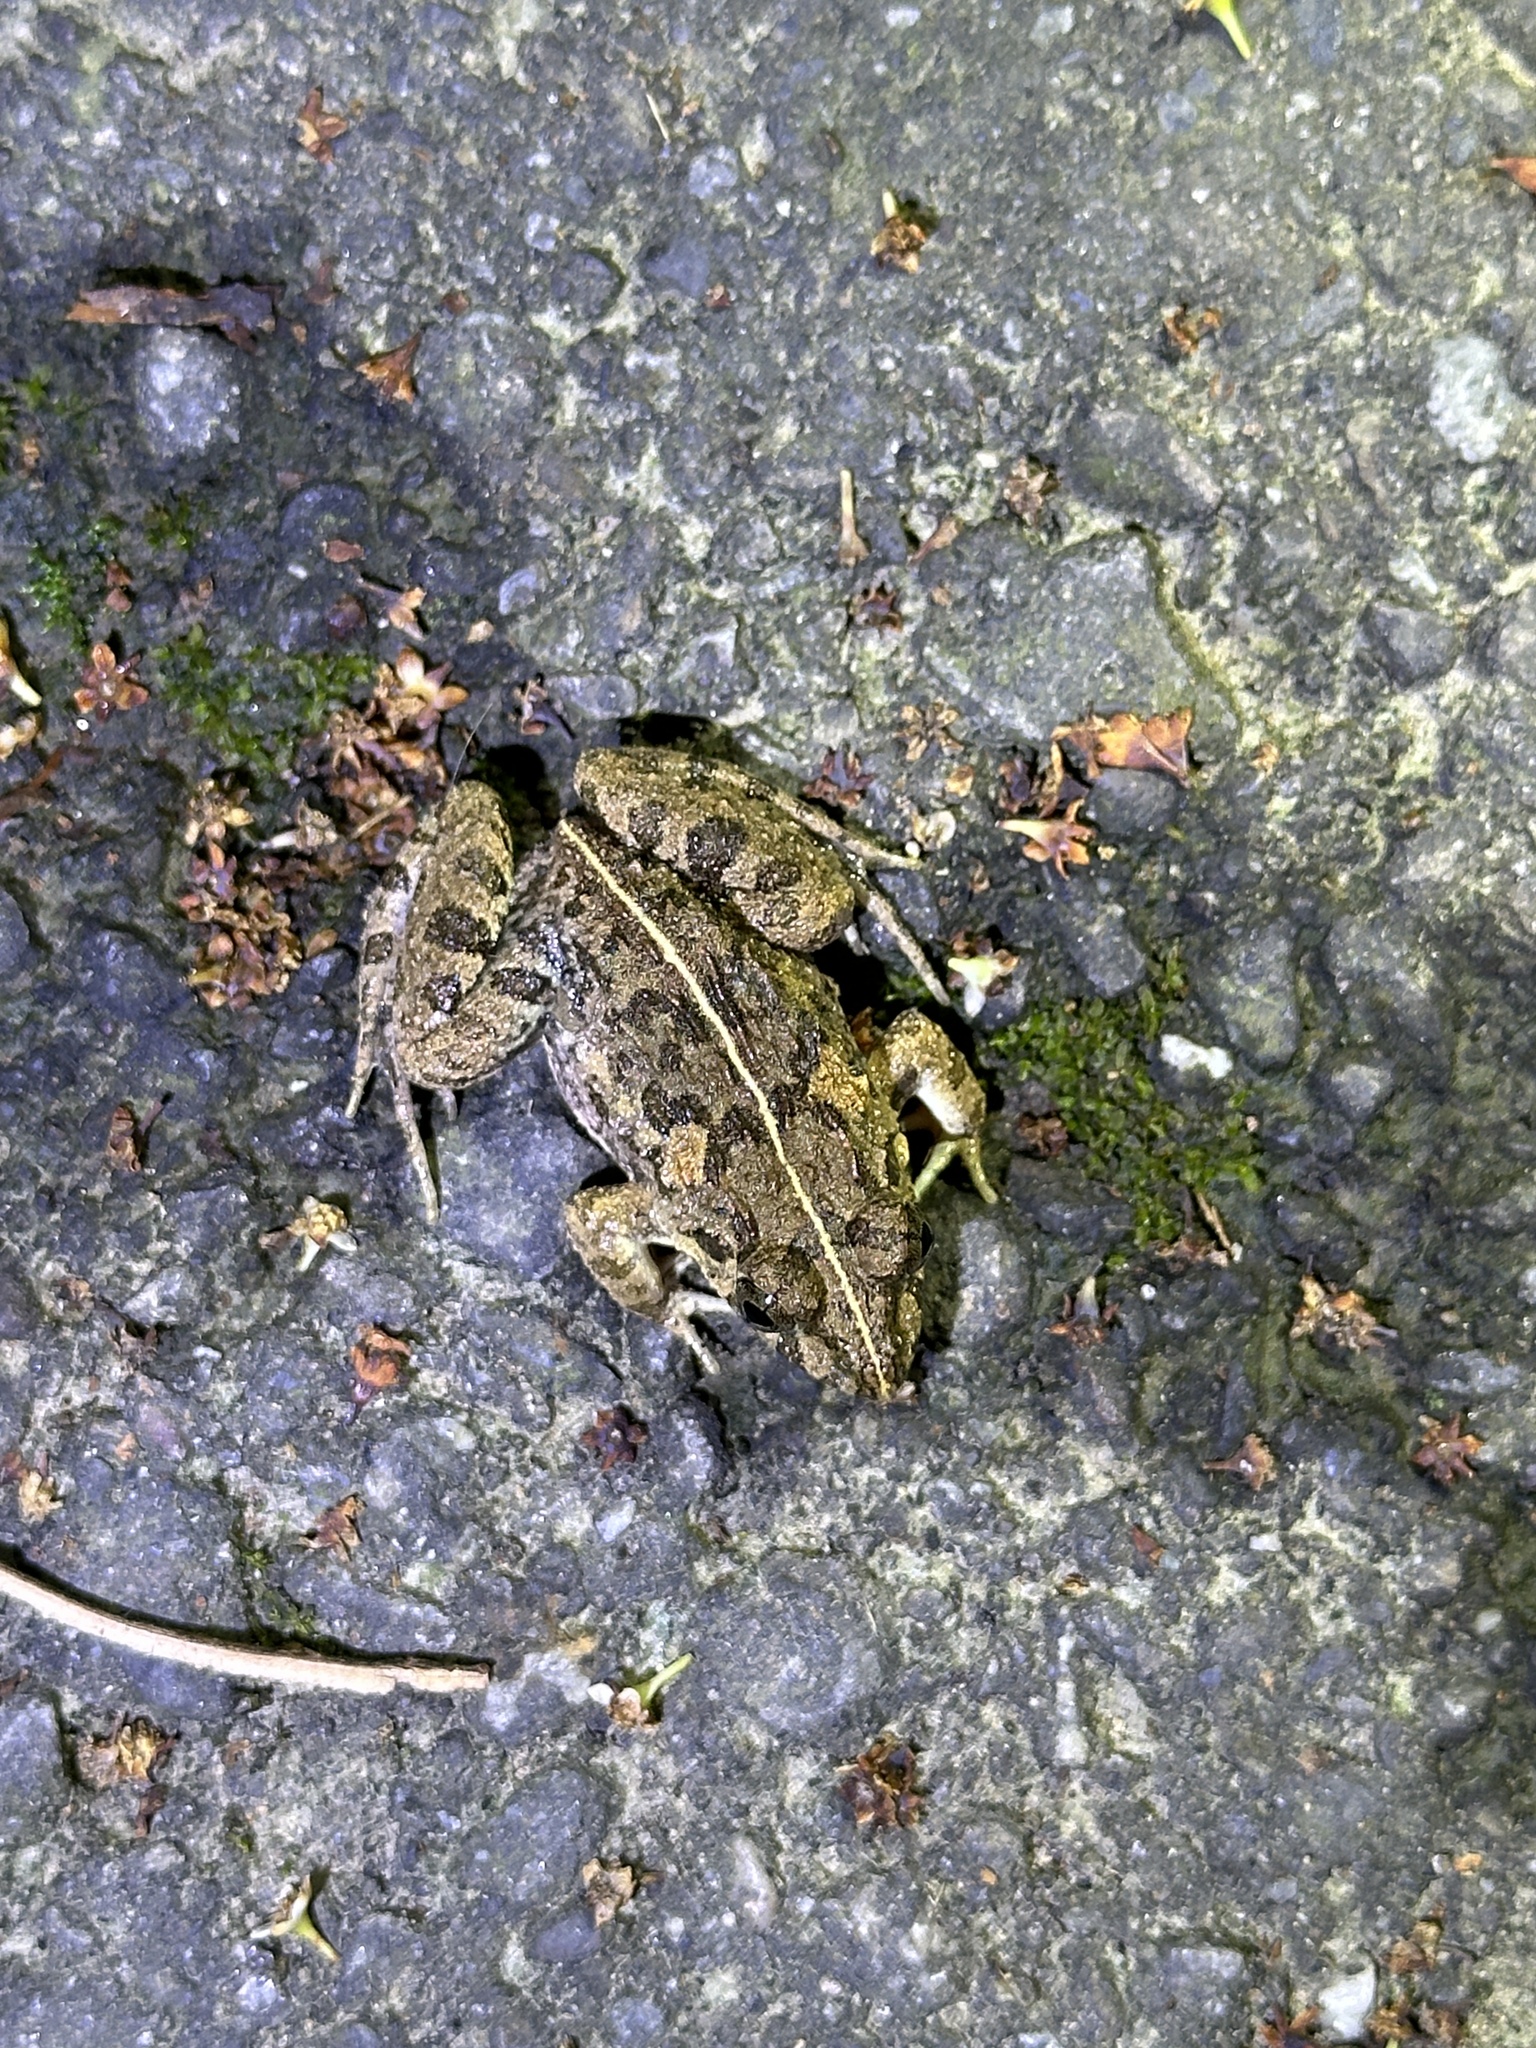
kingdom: Animalia
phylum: Chordata
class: Amphibia
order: Anura
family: Dicroglossidae
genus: Fejervarya
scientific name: Fejervarya limnocharis
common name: Asian grass frog/common pond frog/field frog/grass frog/indian rice frog
